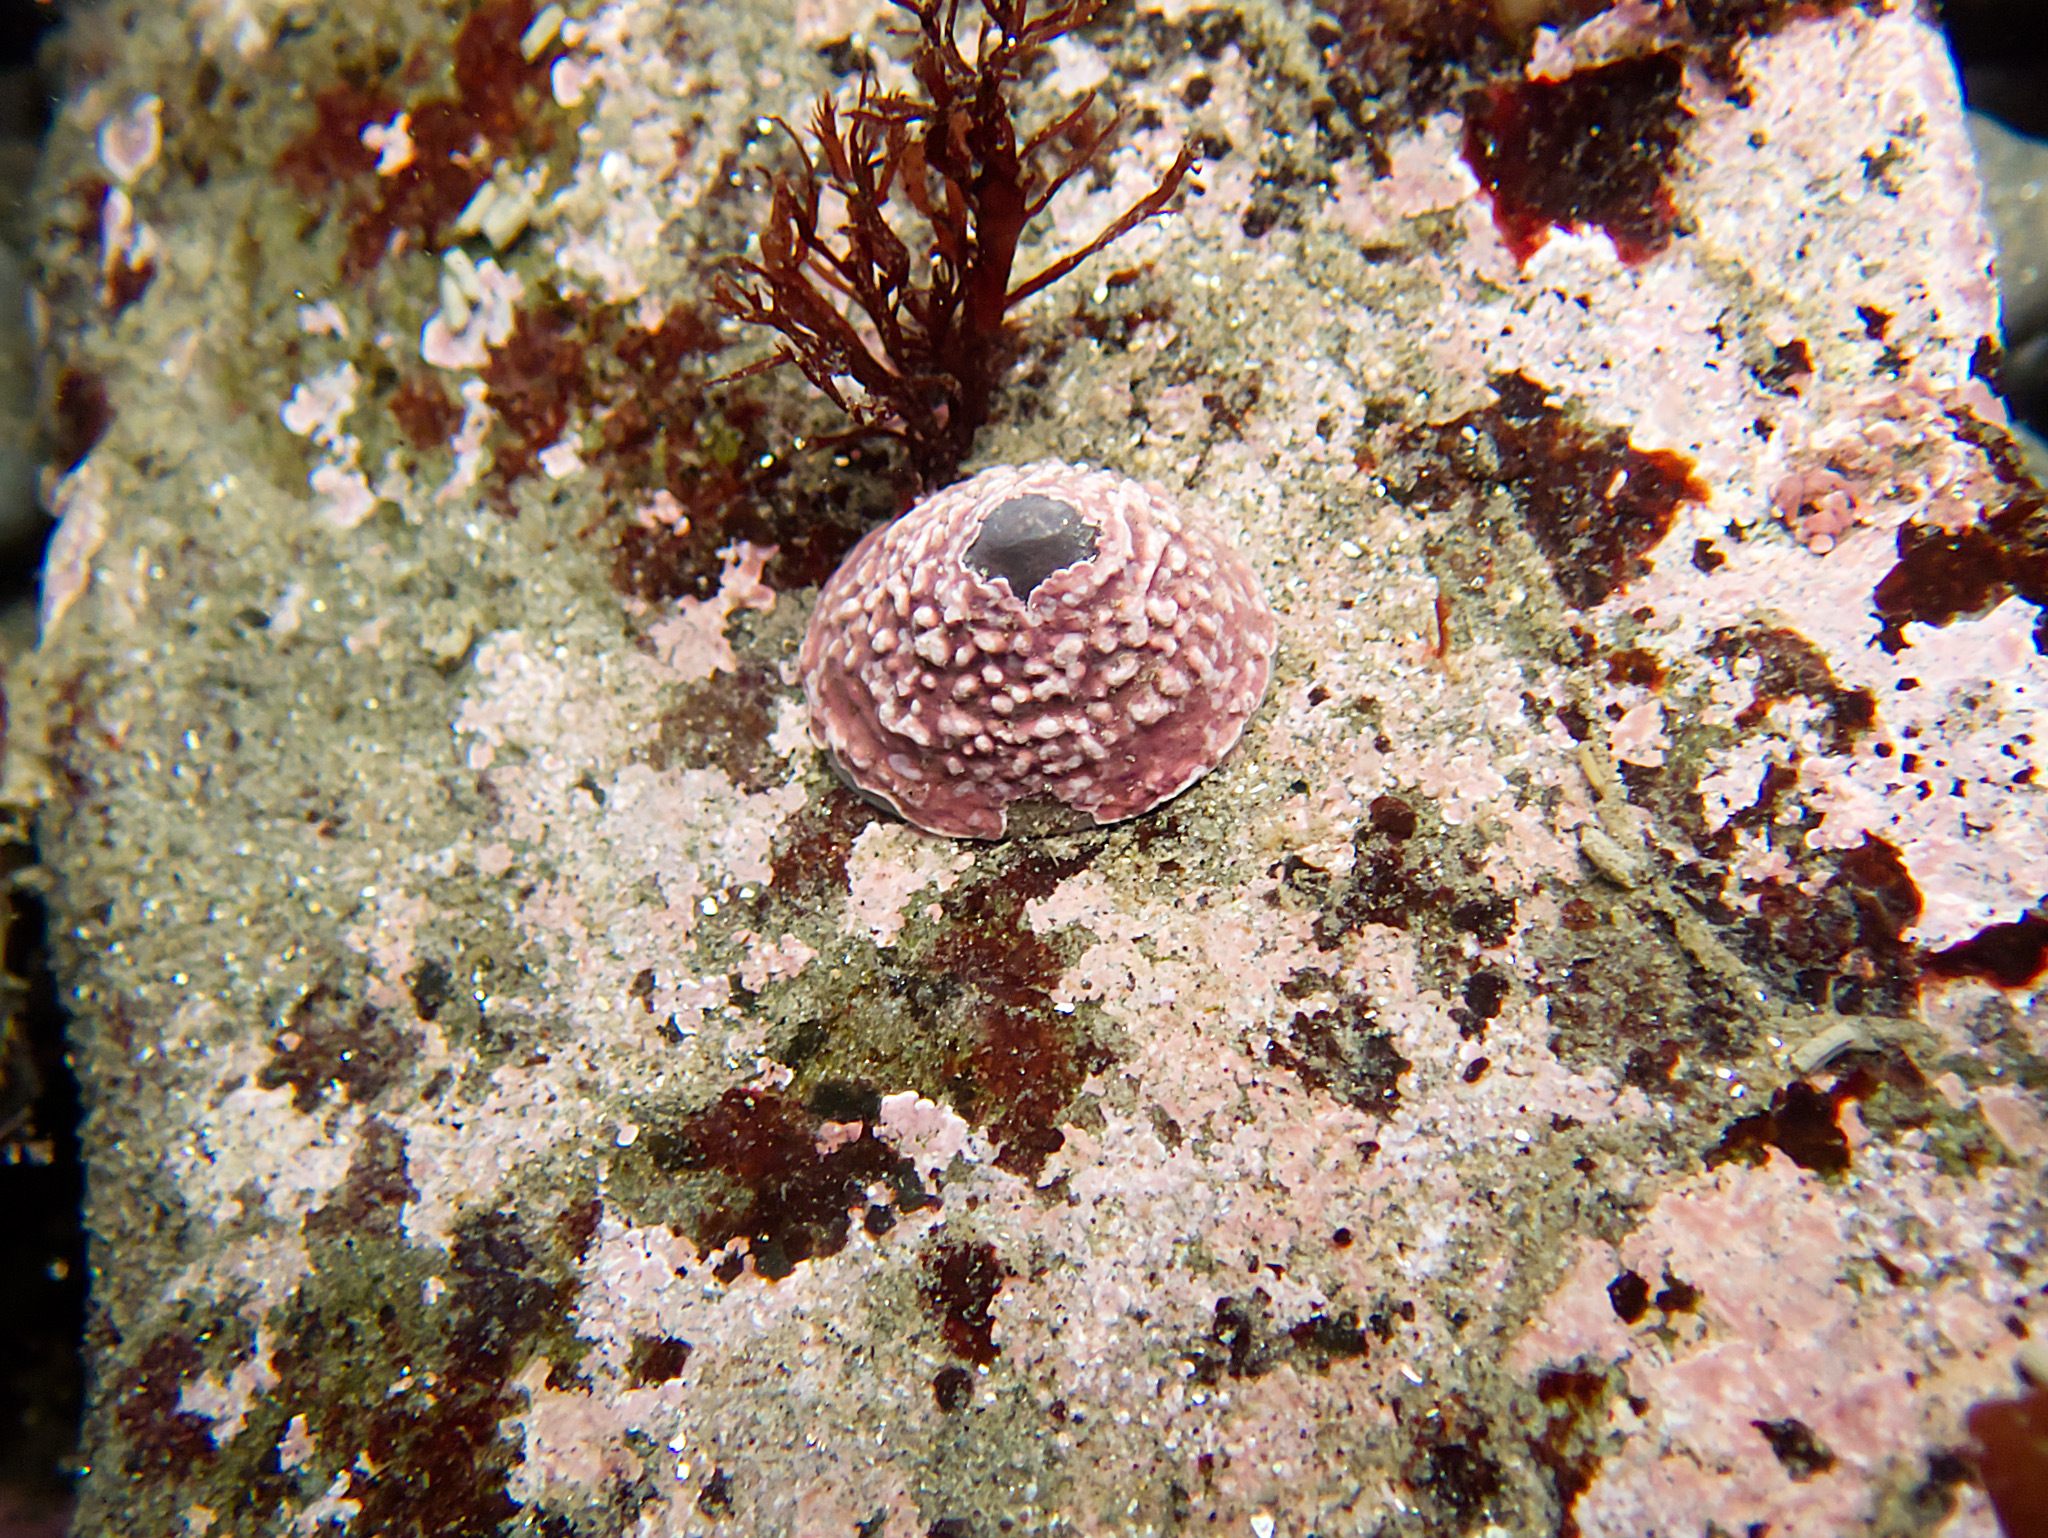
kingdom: Animalia
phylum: Mollusca
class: Gastropoda
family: Acmaeidae
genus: Acmaea
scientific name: Acmaea mitra
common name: Pacific white cap limpet
